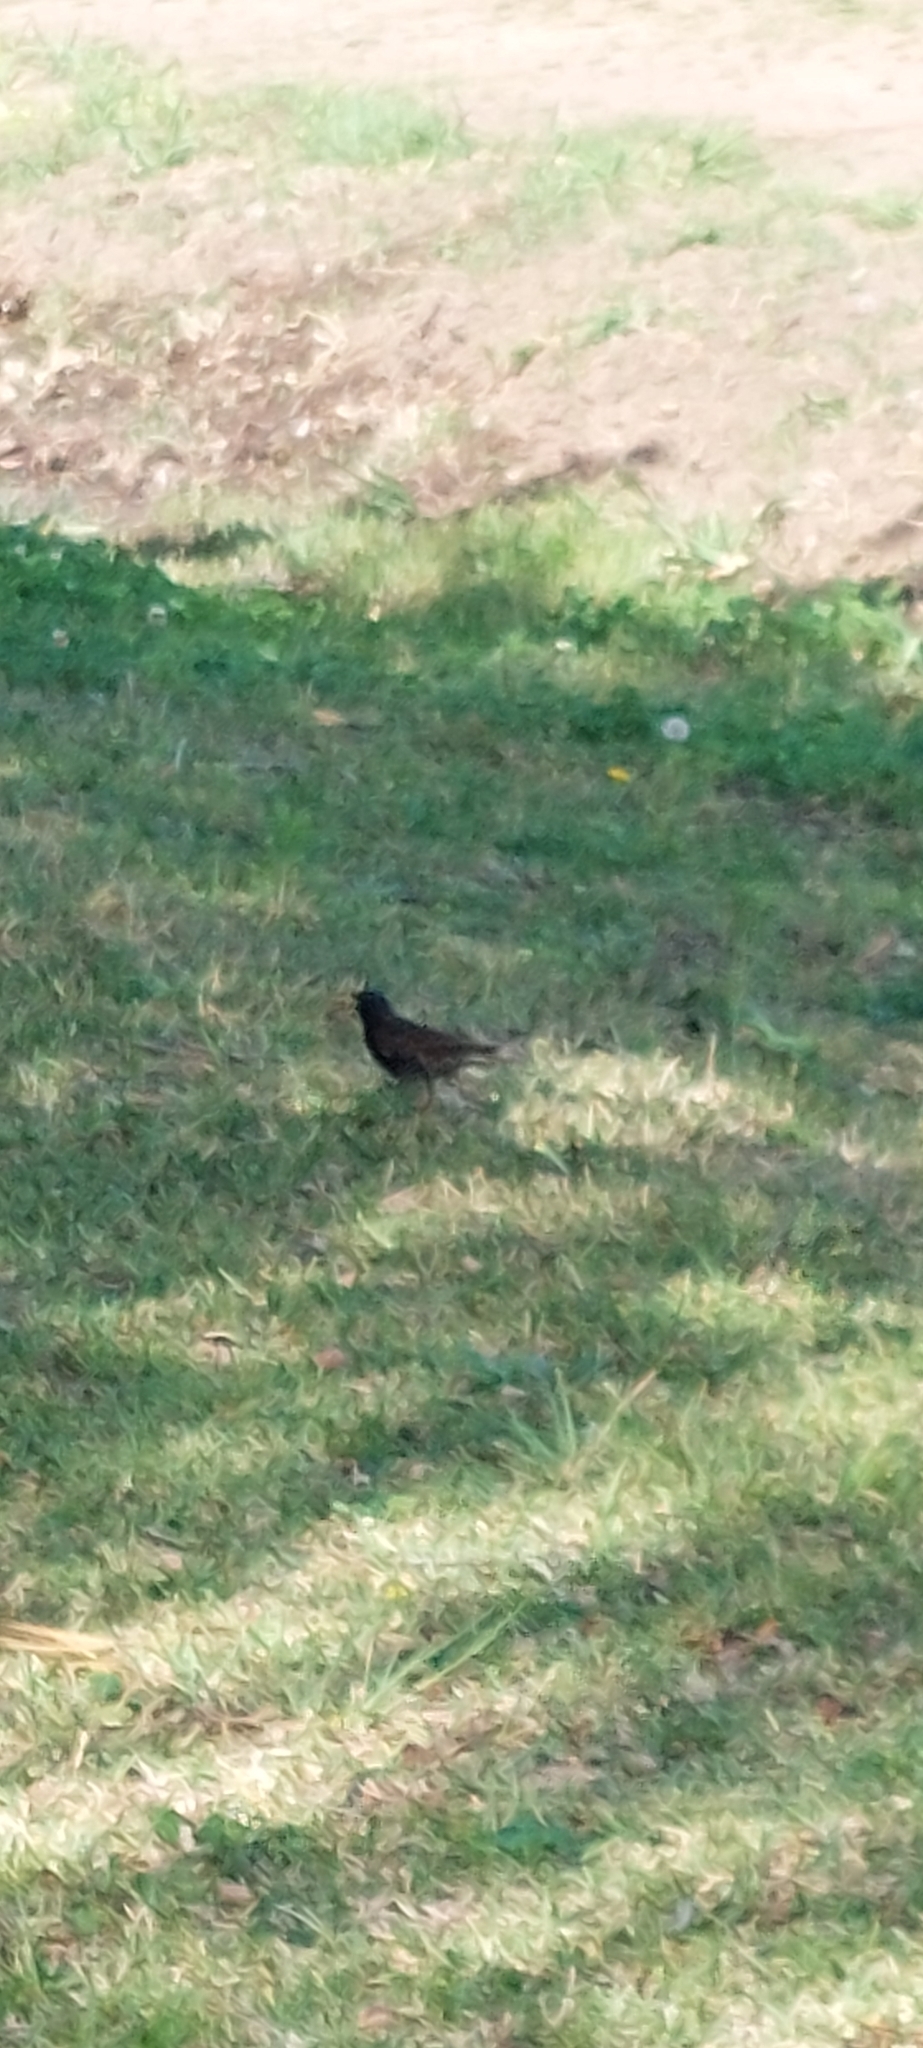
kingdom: Animalia
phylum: Chordata
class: Aves
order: Passeriformes
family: Sturnidae
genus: Sturnus
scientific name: Sturnus vulgaris
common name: Common starling
